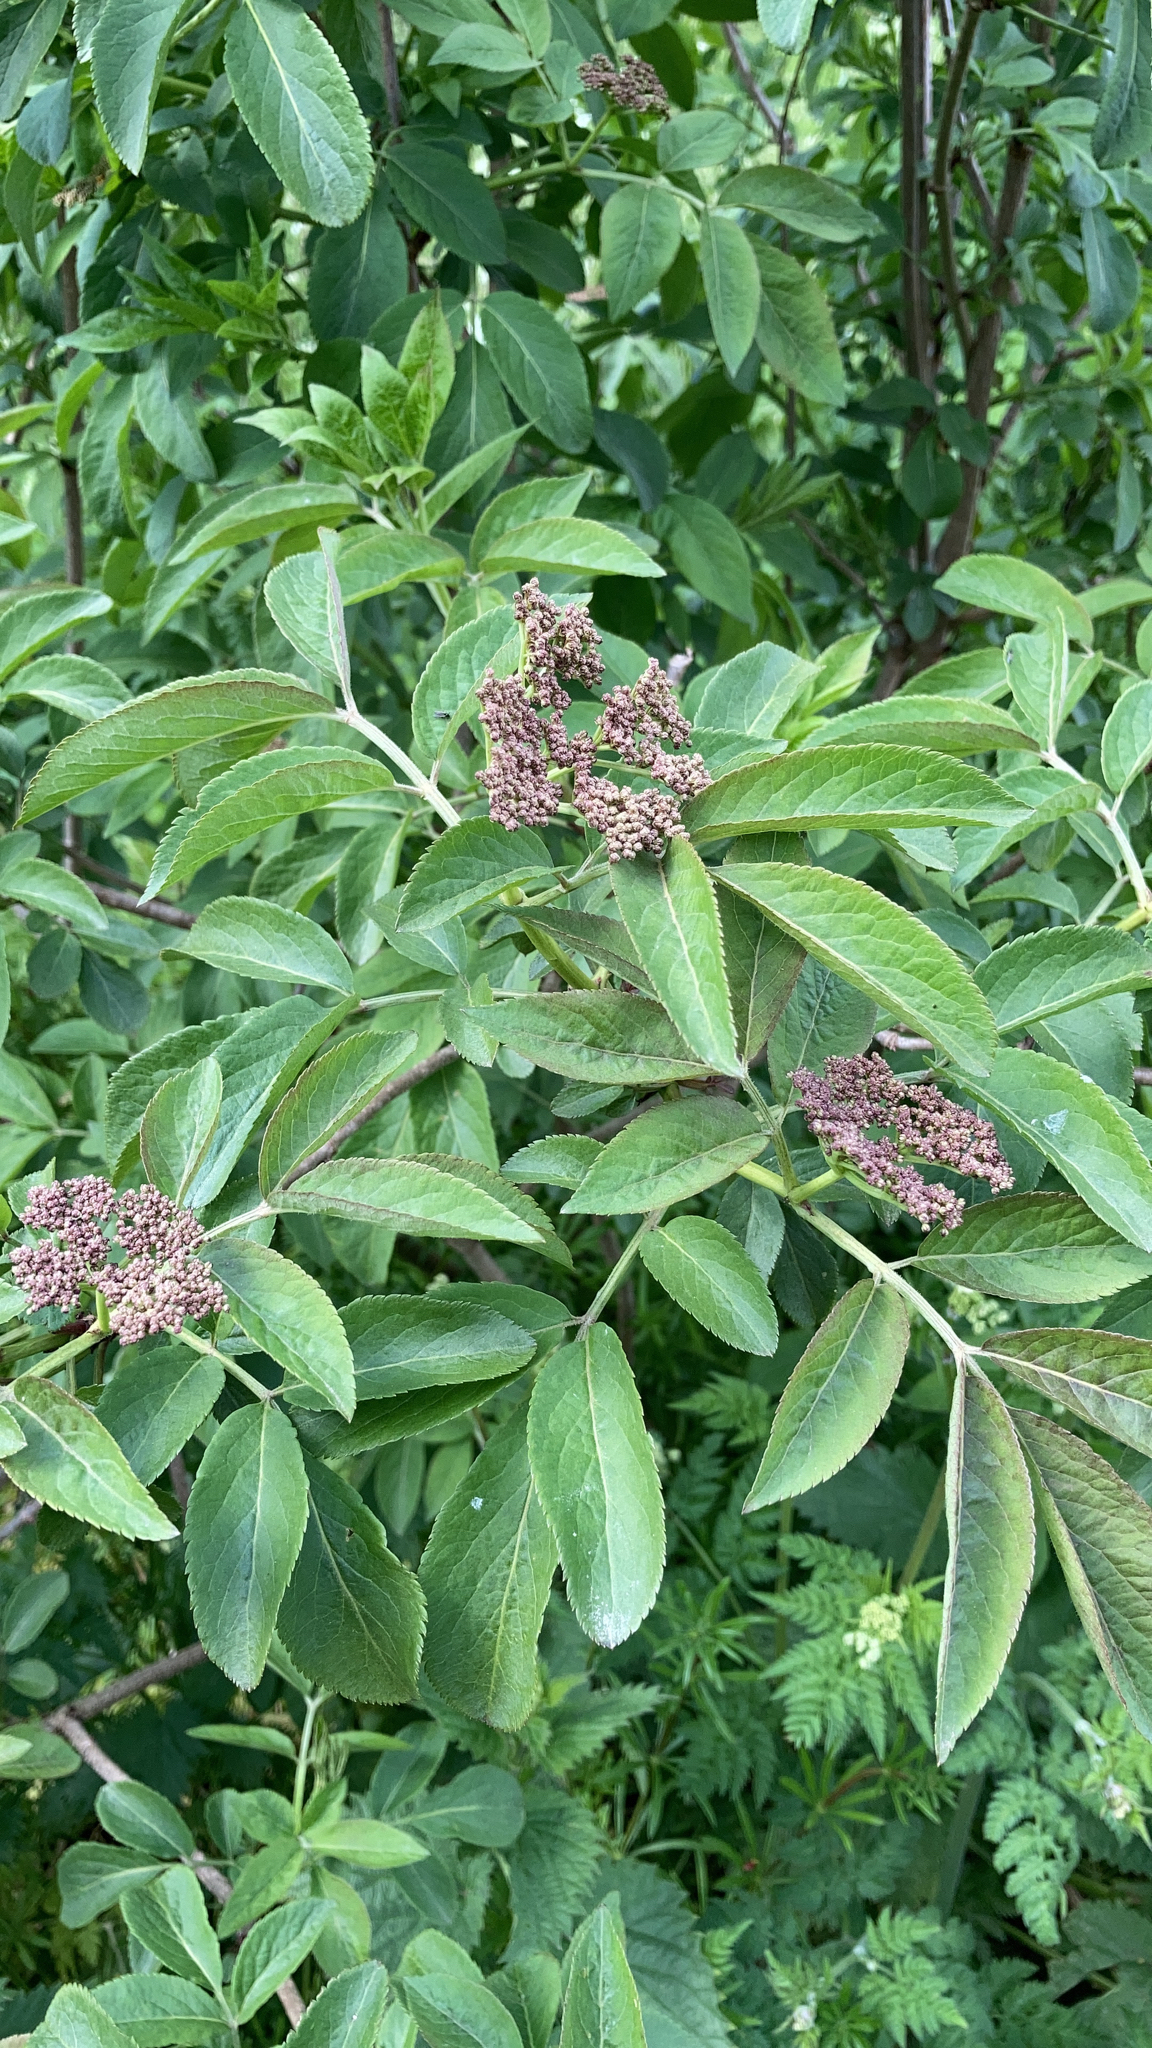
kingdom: Plantae
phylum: Tracheophyta
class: Magnoliopsida
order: Dipsacales
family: Viburnaceae
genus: Sambucus
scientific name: Sambucus nigra
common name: Elder
